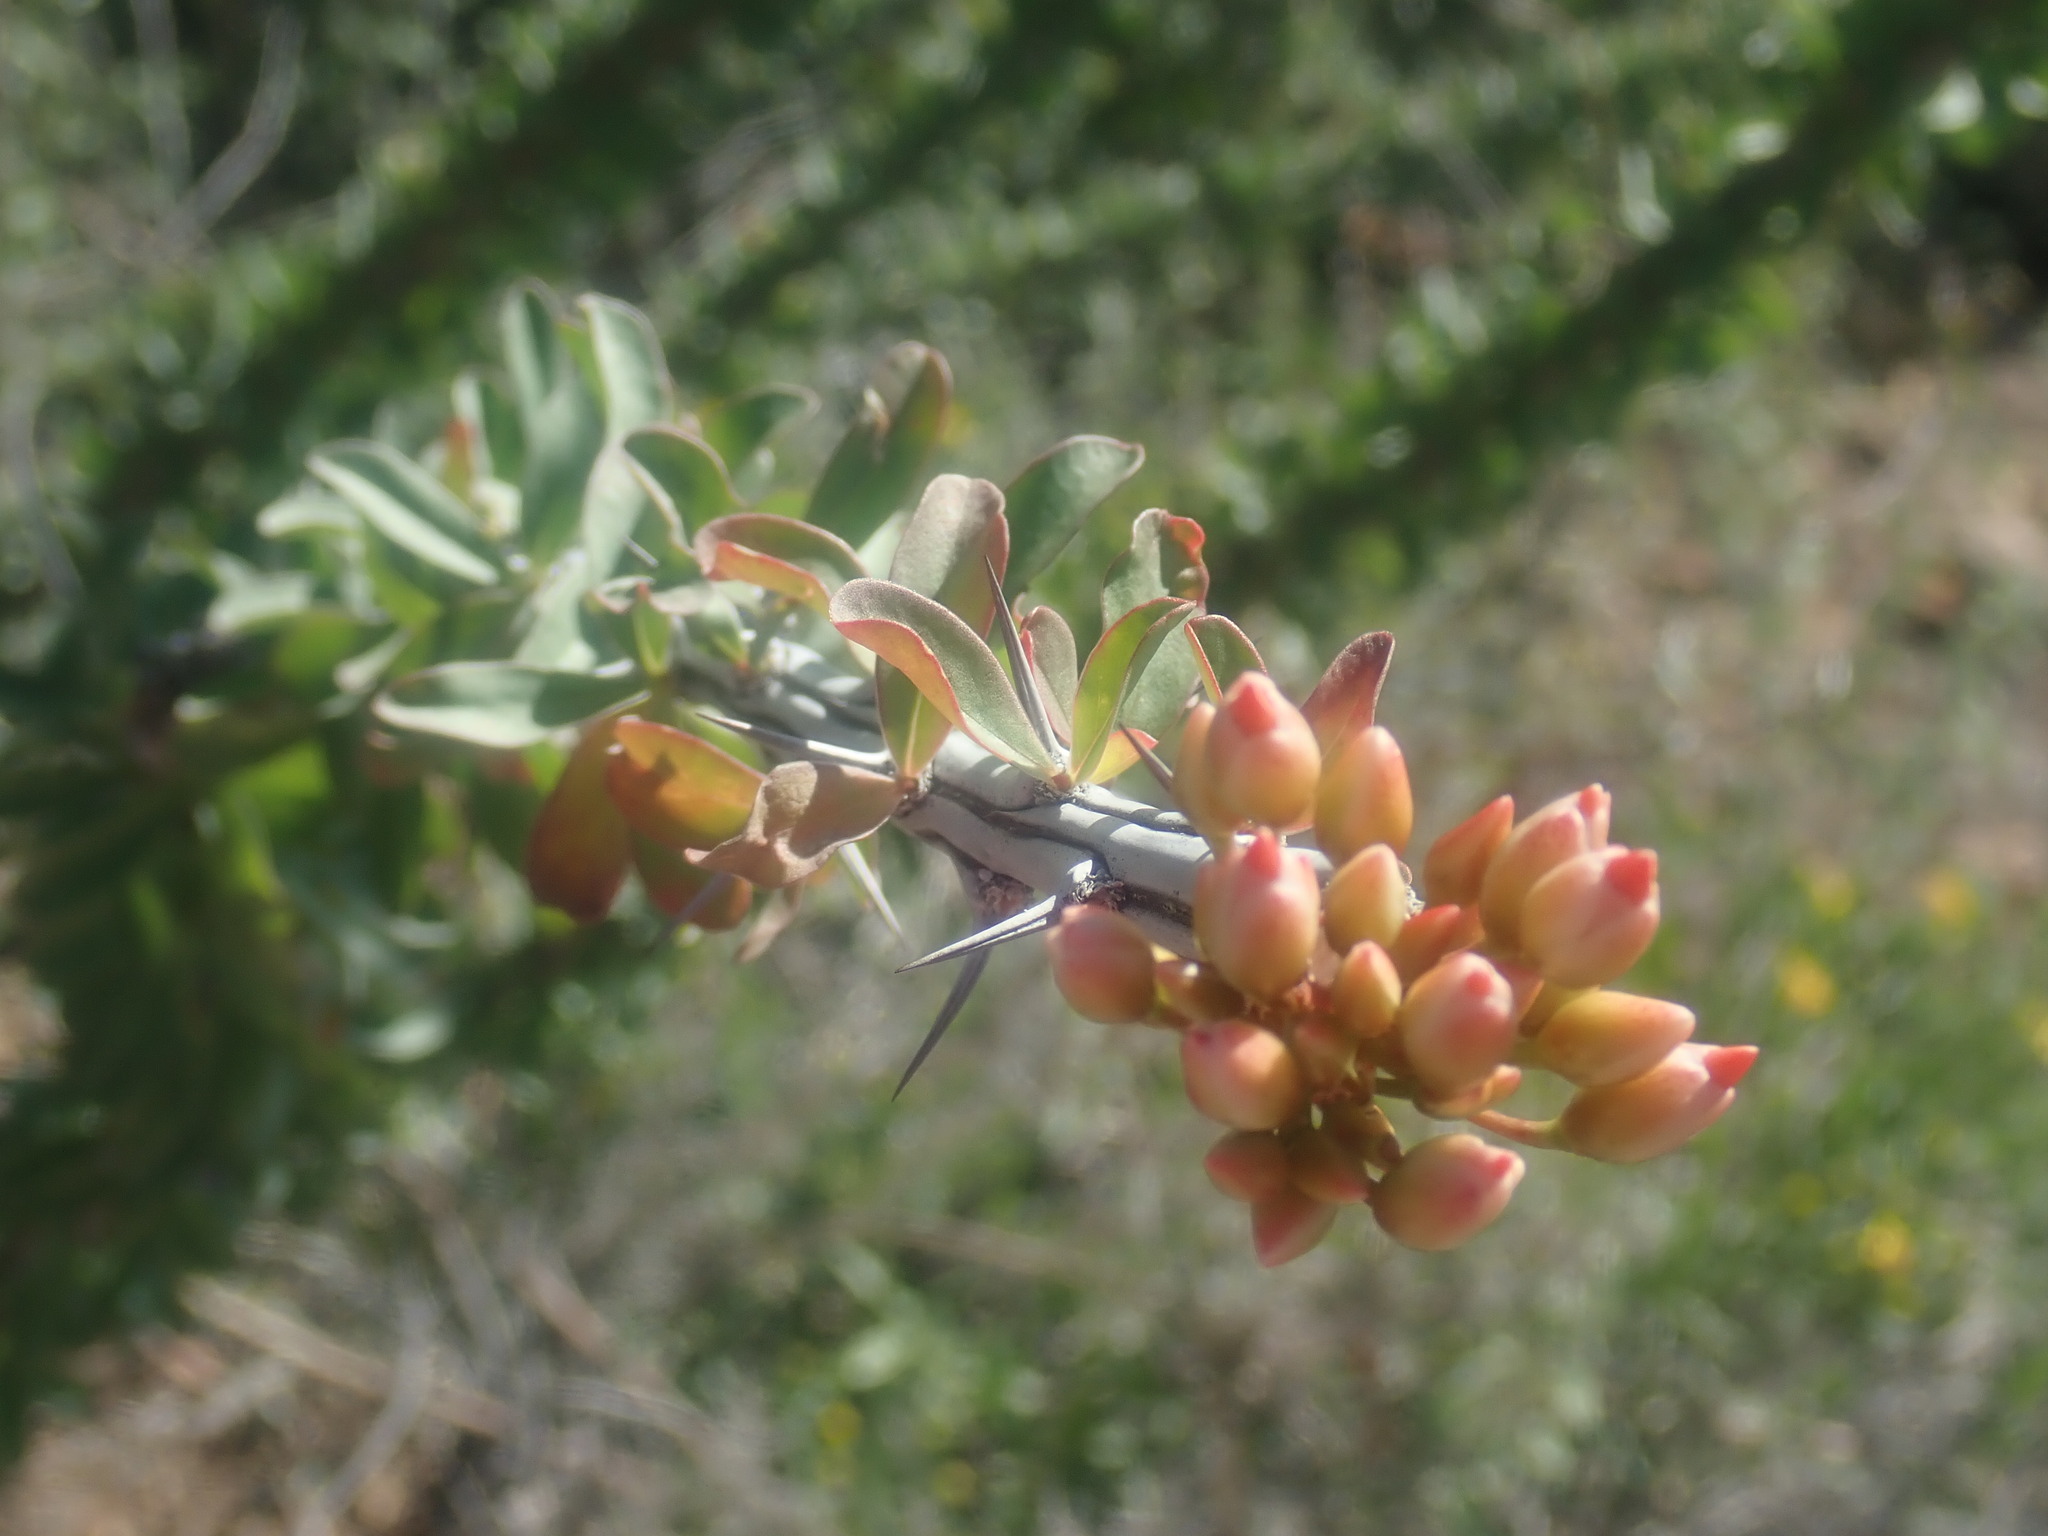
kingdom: Plantae
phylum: Tracheophyta
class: Magnoliopsida
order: Ericales
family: Fouquieriaceae
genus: Fouquieria
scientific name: Fouquieria splendens
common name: Vine-cactus
